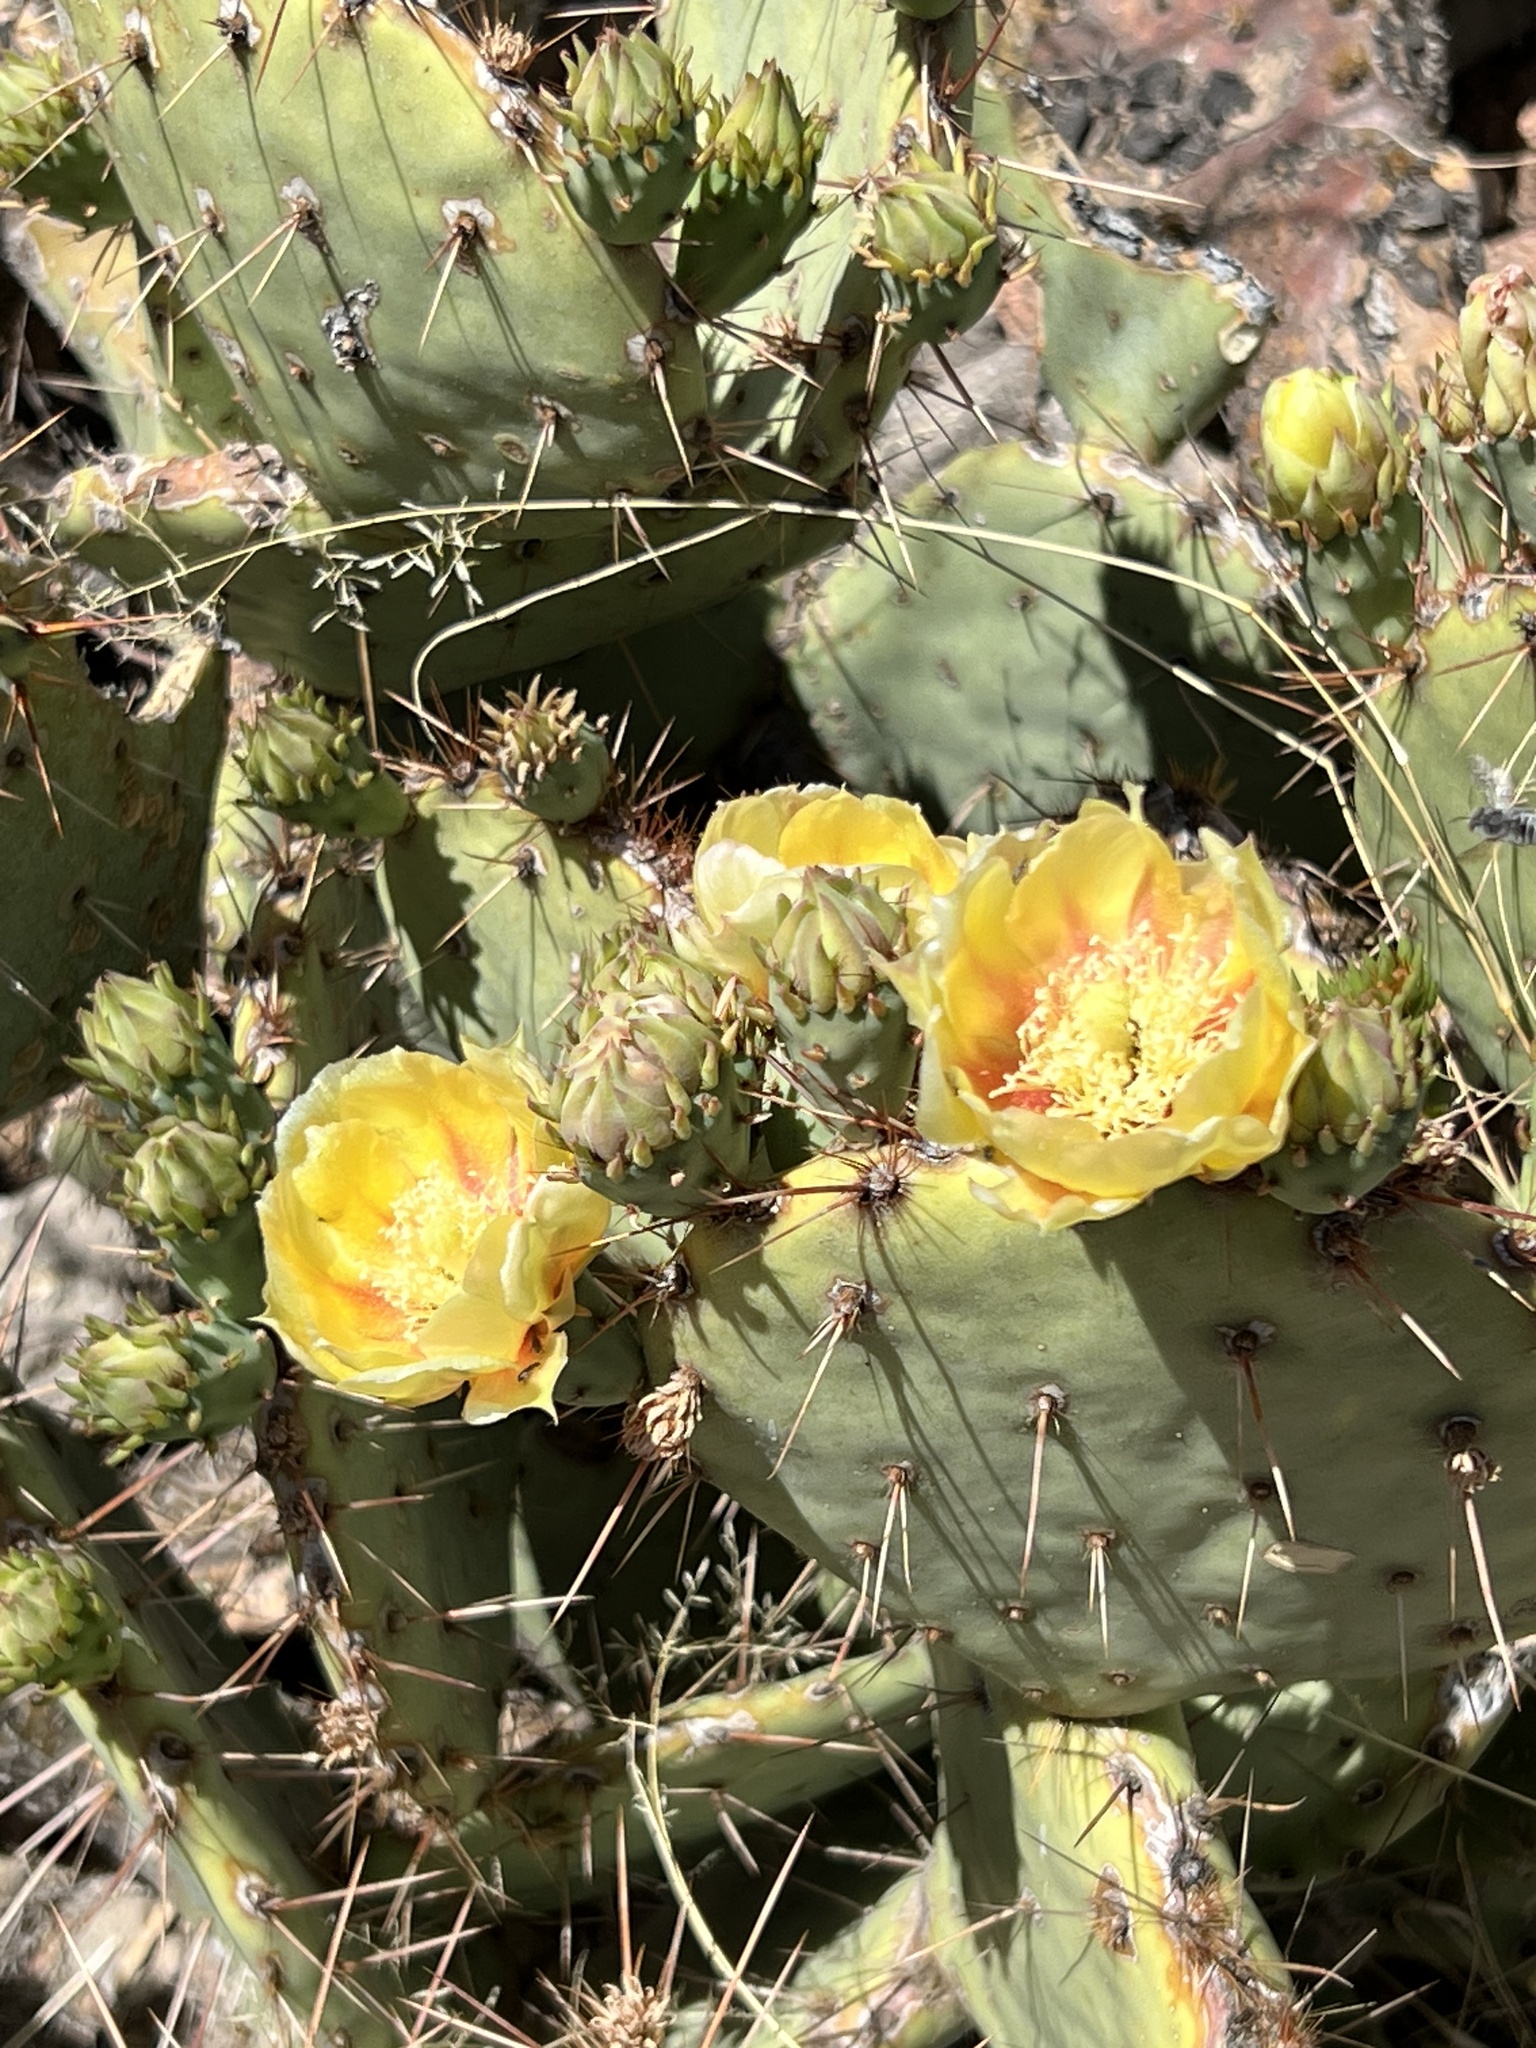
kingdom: Plantae
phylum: Tracheophyta
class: Magnoliopsida
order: Caryophyllales
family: Cactaceae
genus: Opuntia
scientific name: Opuntia phaeacantha
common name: New mexico prickly-pear
